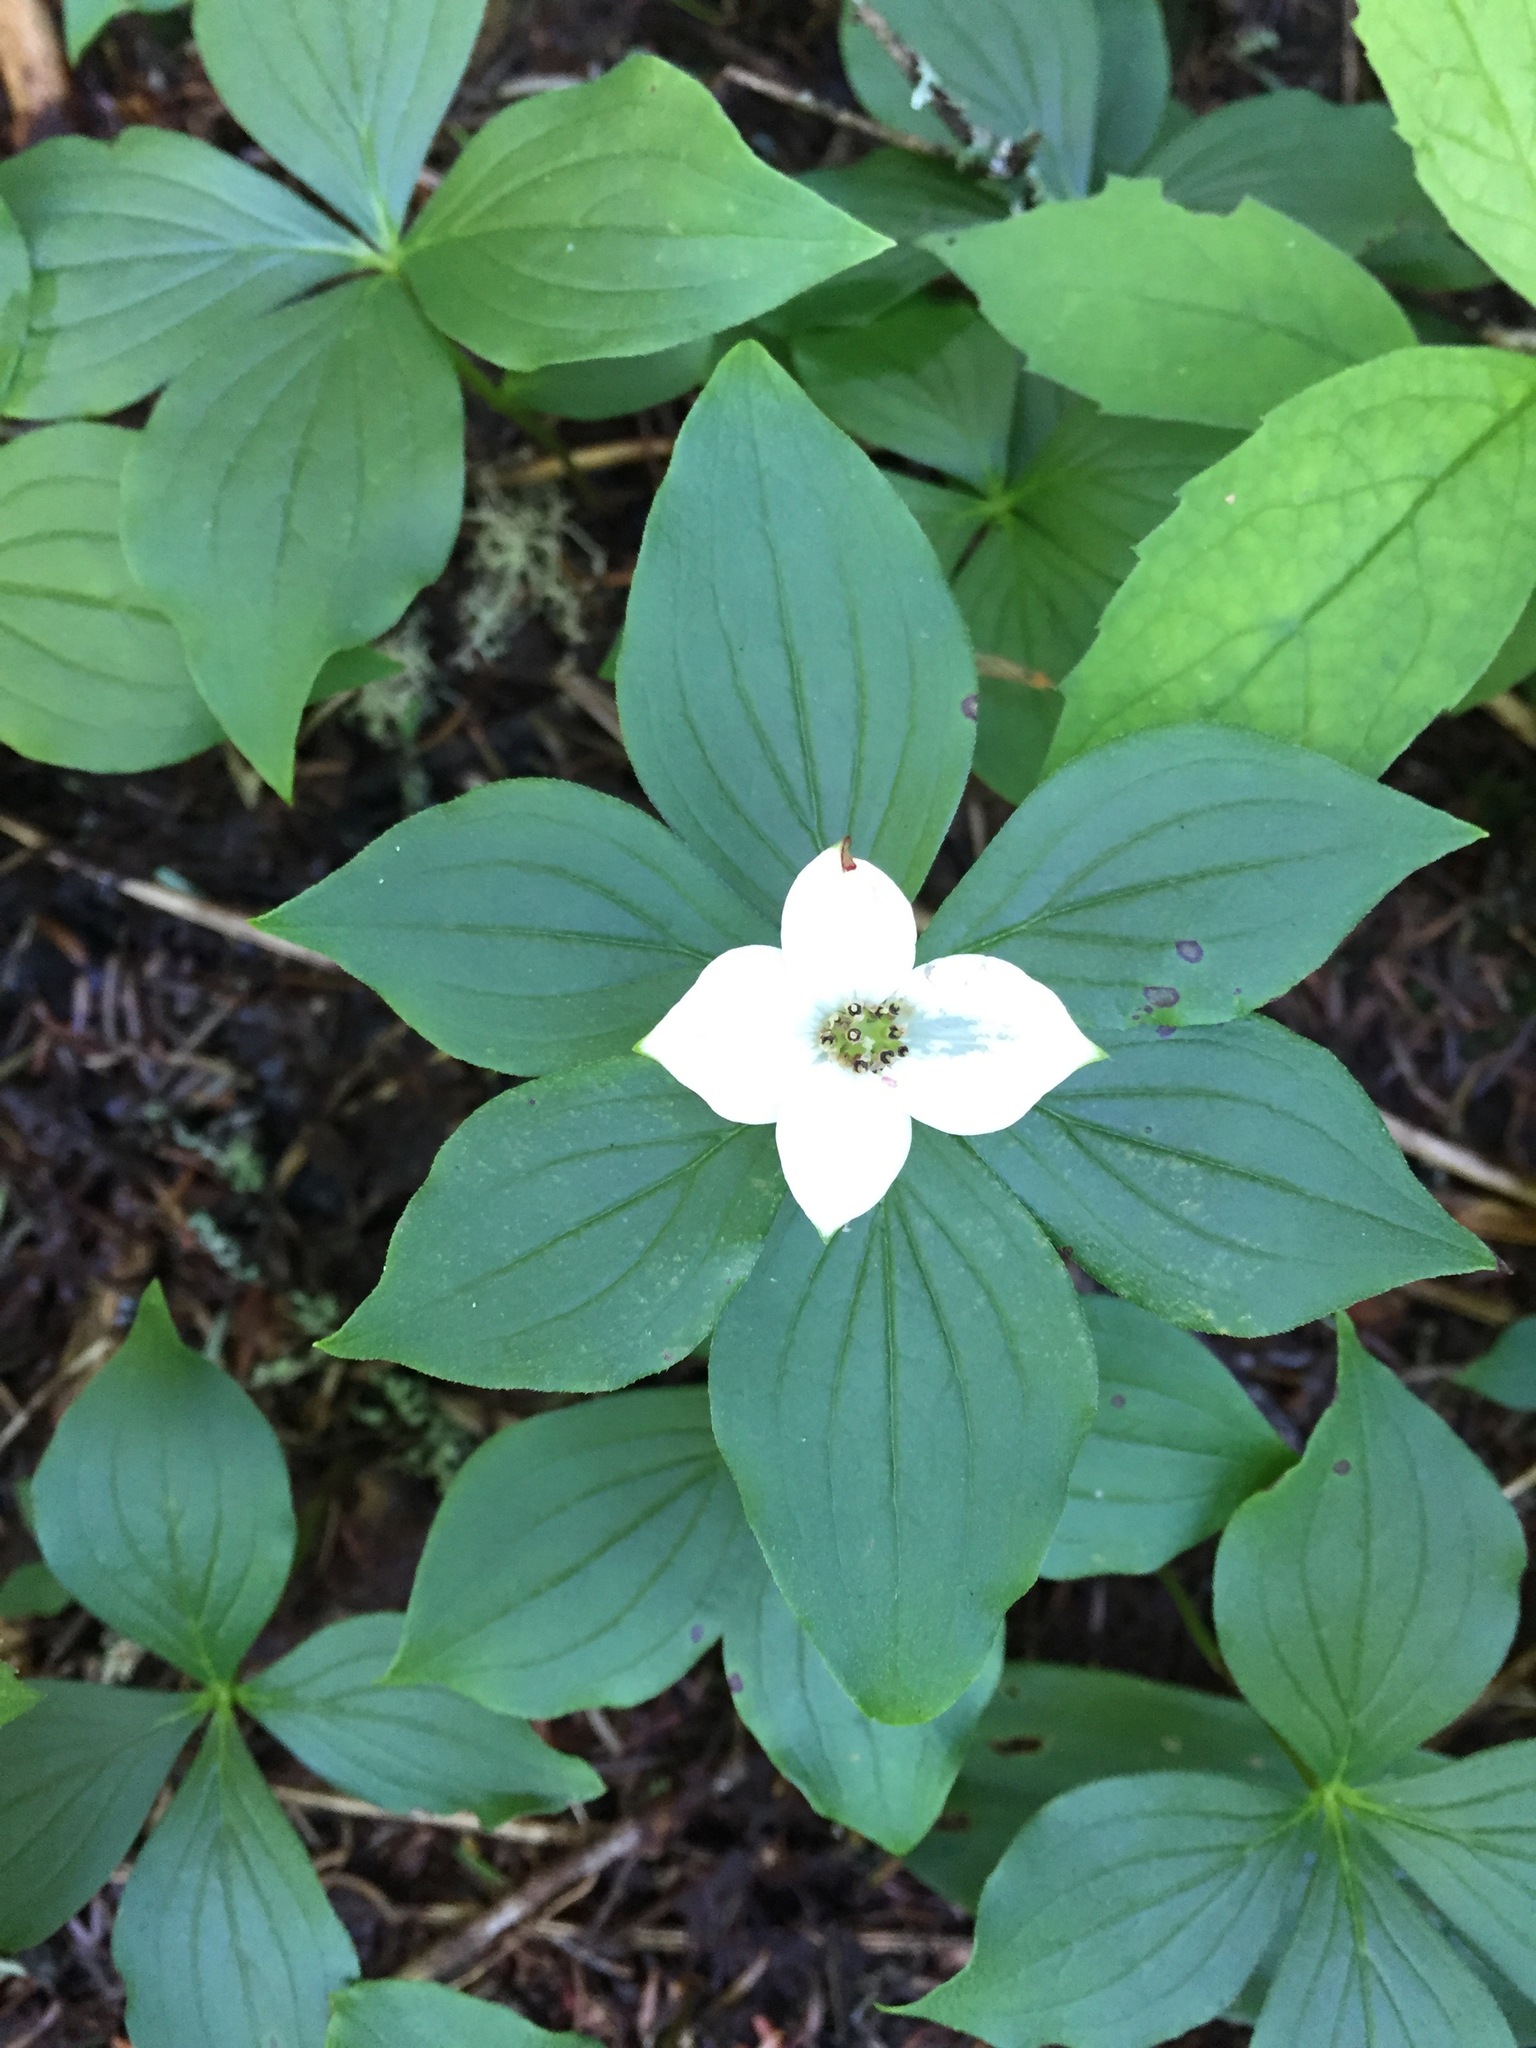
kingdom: Plantae
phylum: Tracheophyta
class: Magnoliopsida
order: Cornales
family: Cornaceae
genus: Cornus
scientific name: Cornus canadensis
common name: Creeping dogwood
